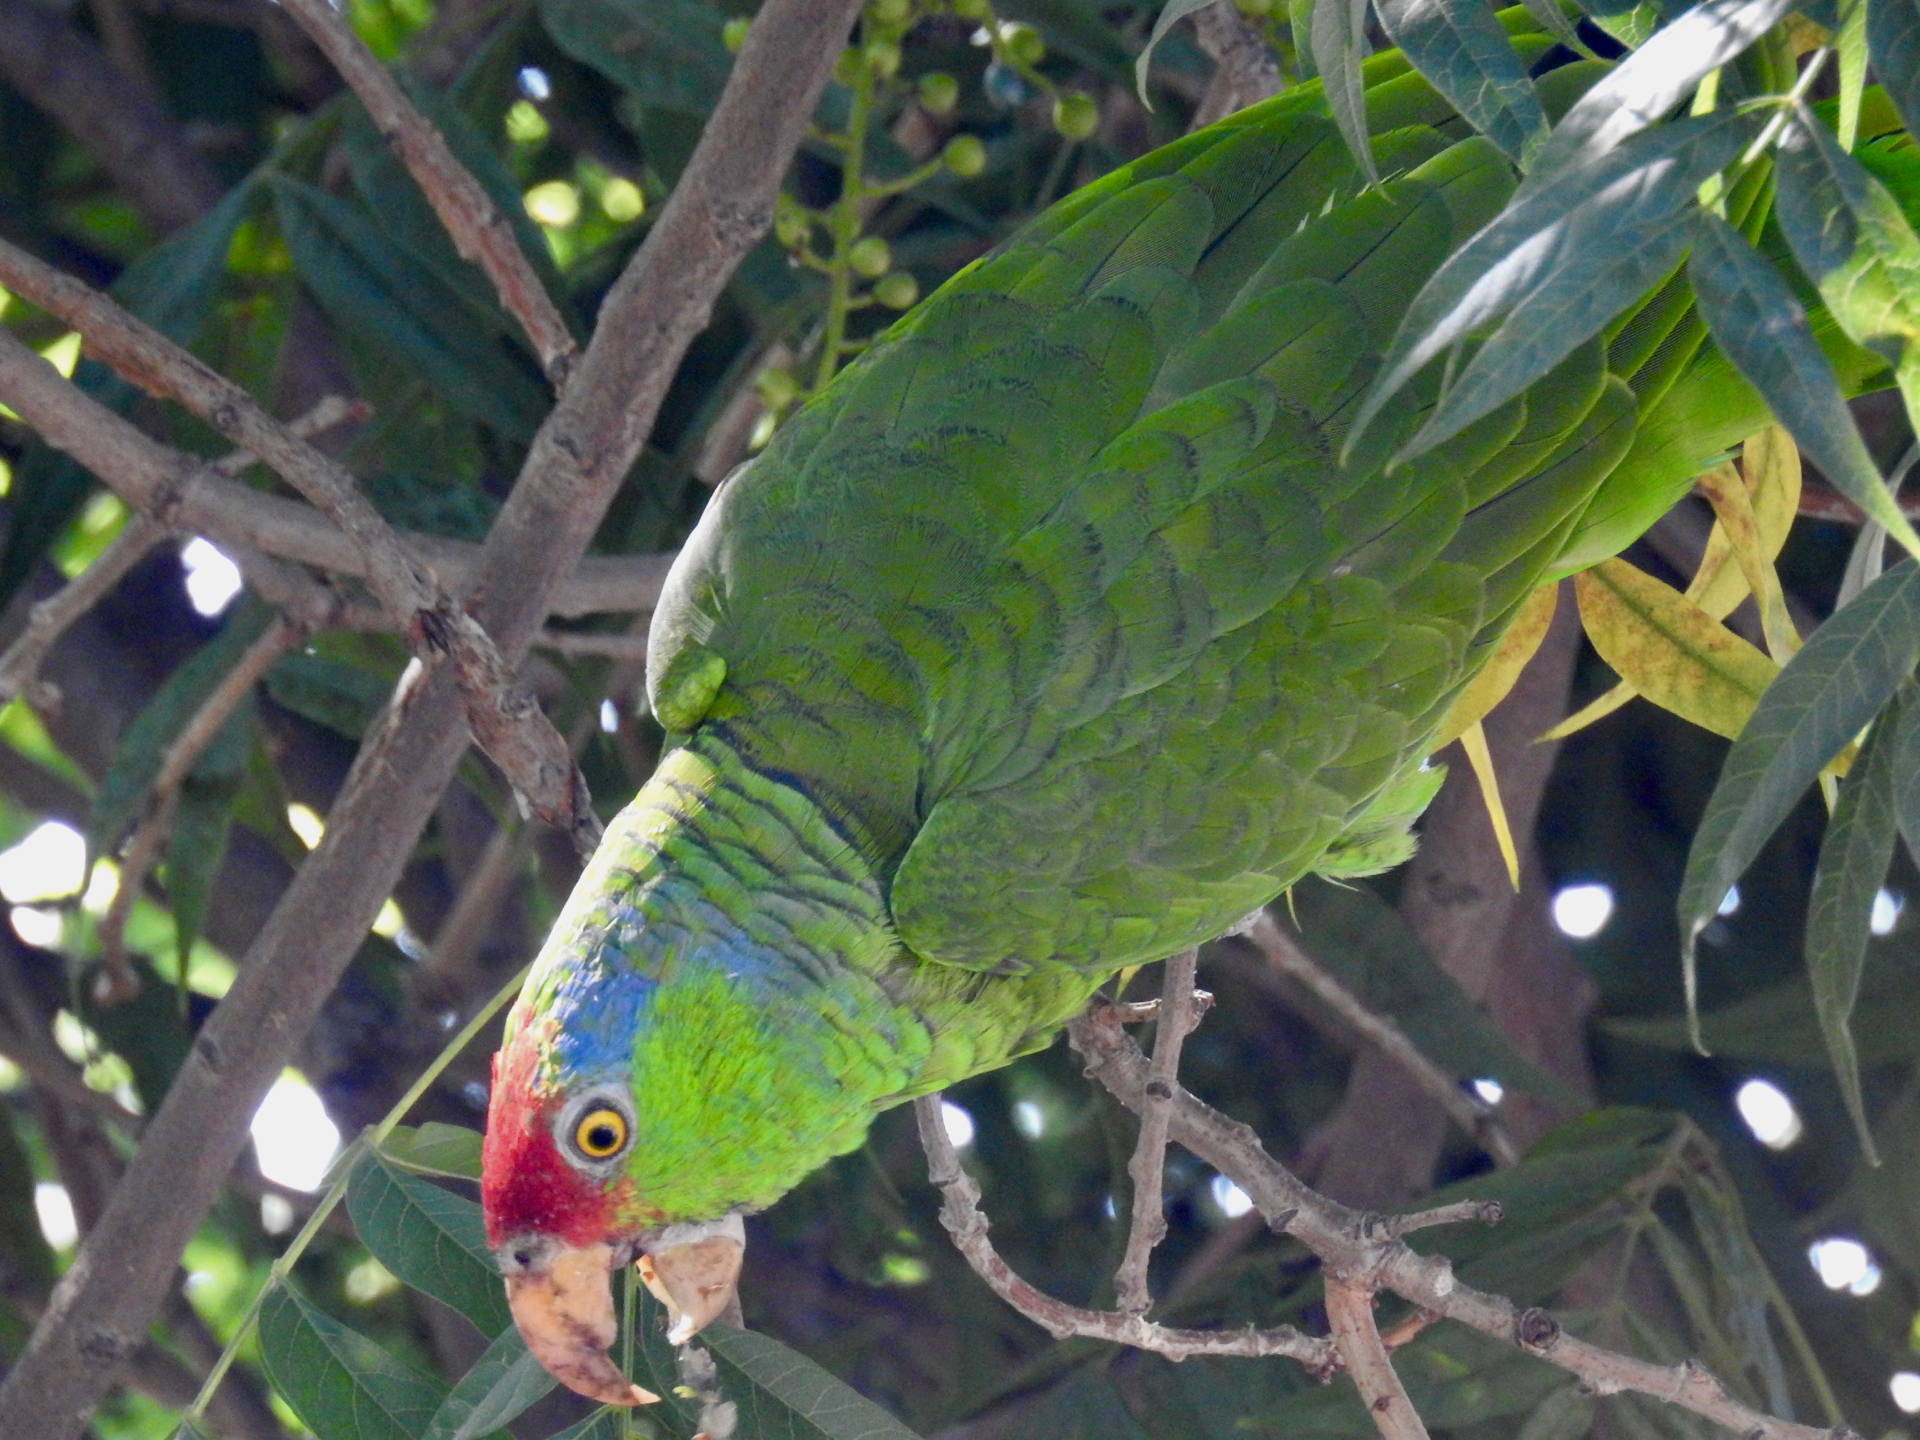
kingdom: Animalia
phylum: Chordata
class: Aves
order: Psittaciformes
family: Psittacidae
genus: Amazona
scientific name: Amazona viridigenalis
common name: Red-crowned amazon
